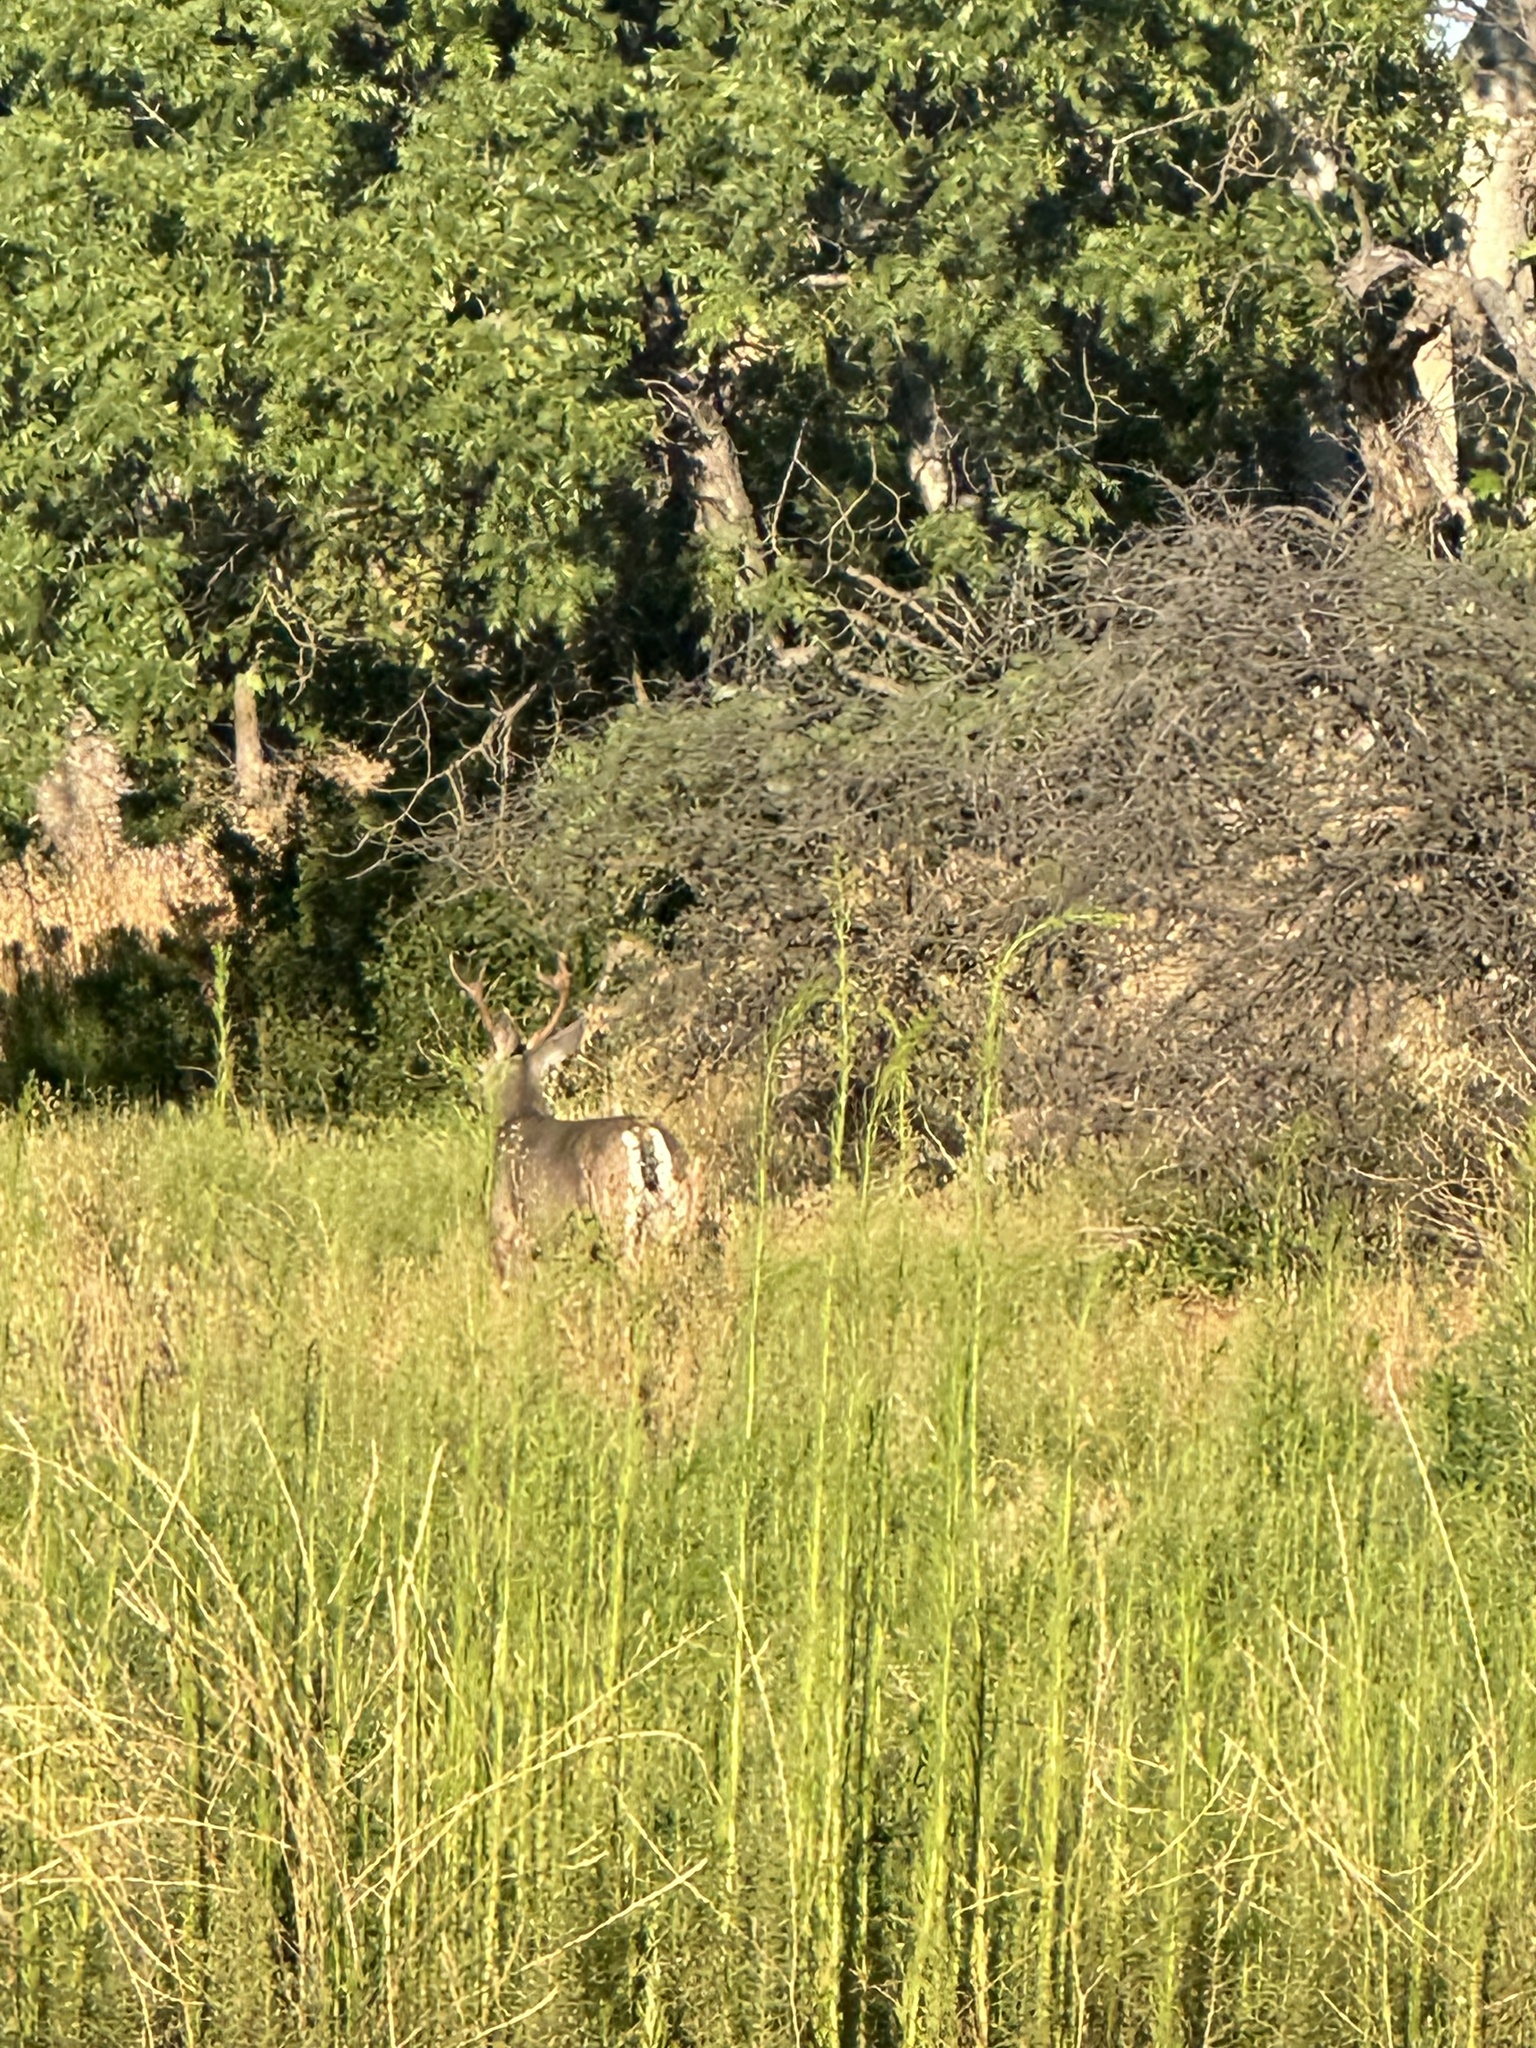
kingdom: Animalia
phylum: Chordata
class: Mammalia
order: Artiodactyla
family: Cervidae
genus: Odocoileus
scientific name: Odocoileus hemionus
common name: Mule deer
